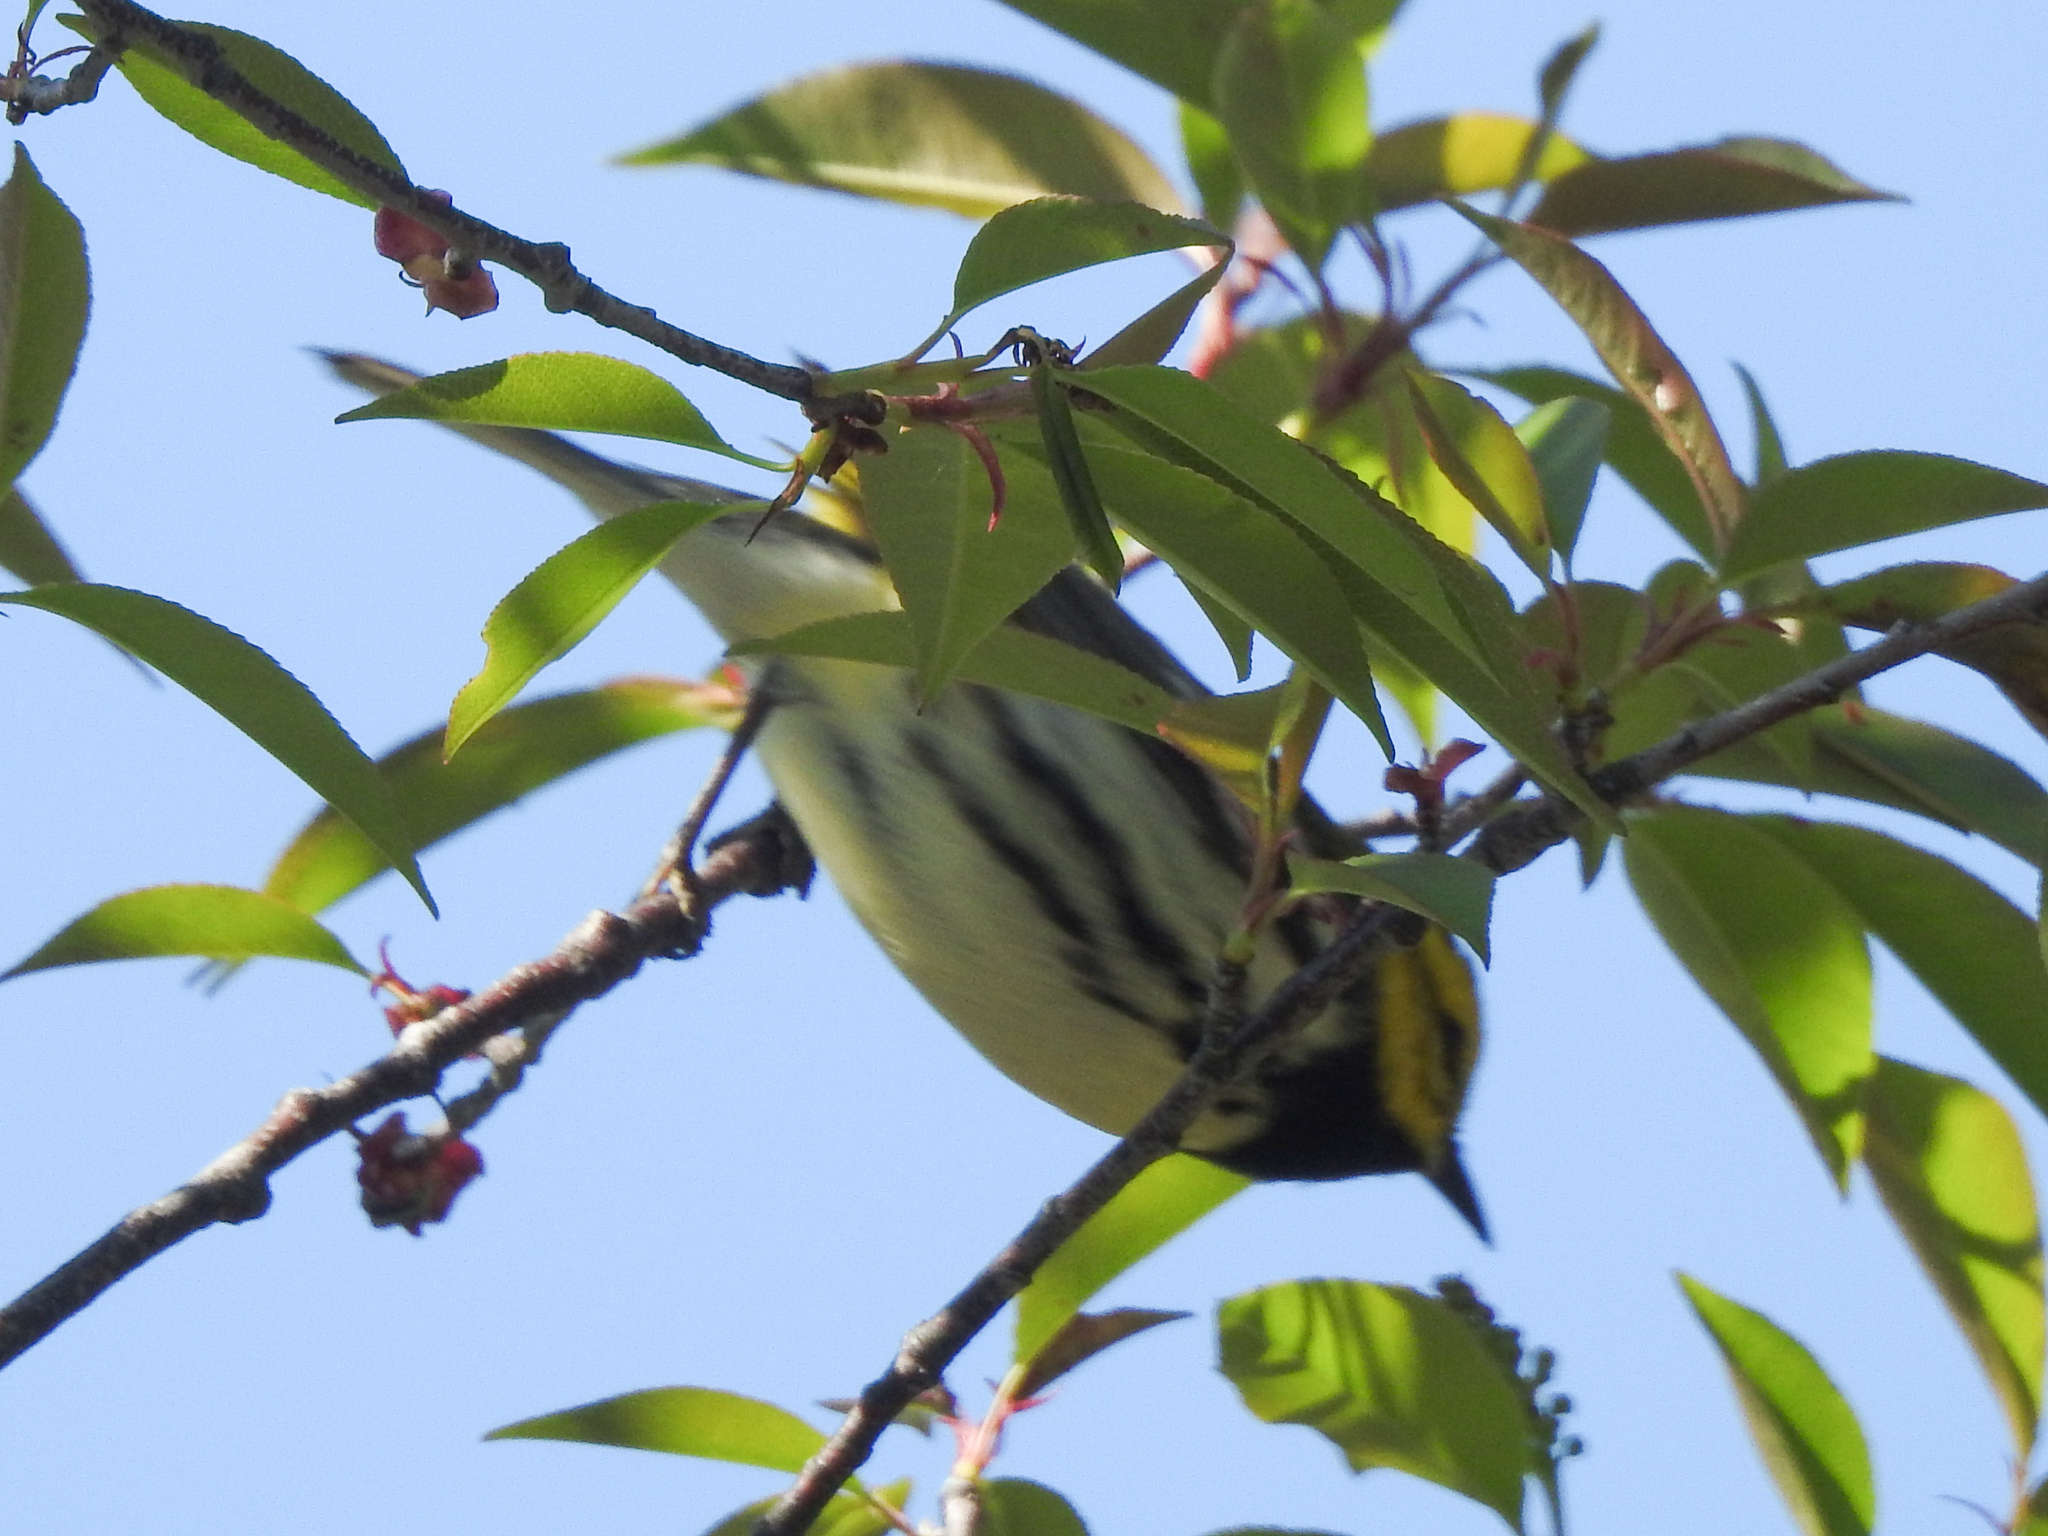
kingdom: Animalia
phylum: Chordata
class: Aves
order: Passeriformes
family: Parulidae
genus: Setophaga
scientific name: Setophaga virens
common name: Black-throated green warbler
